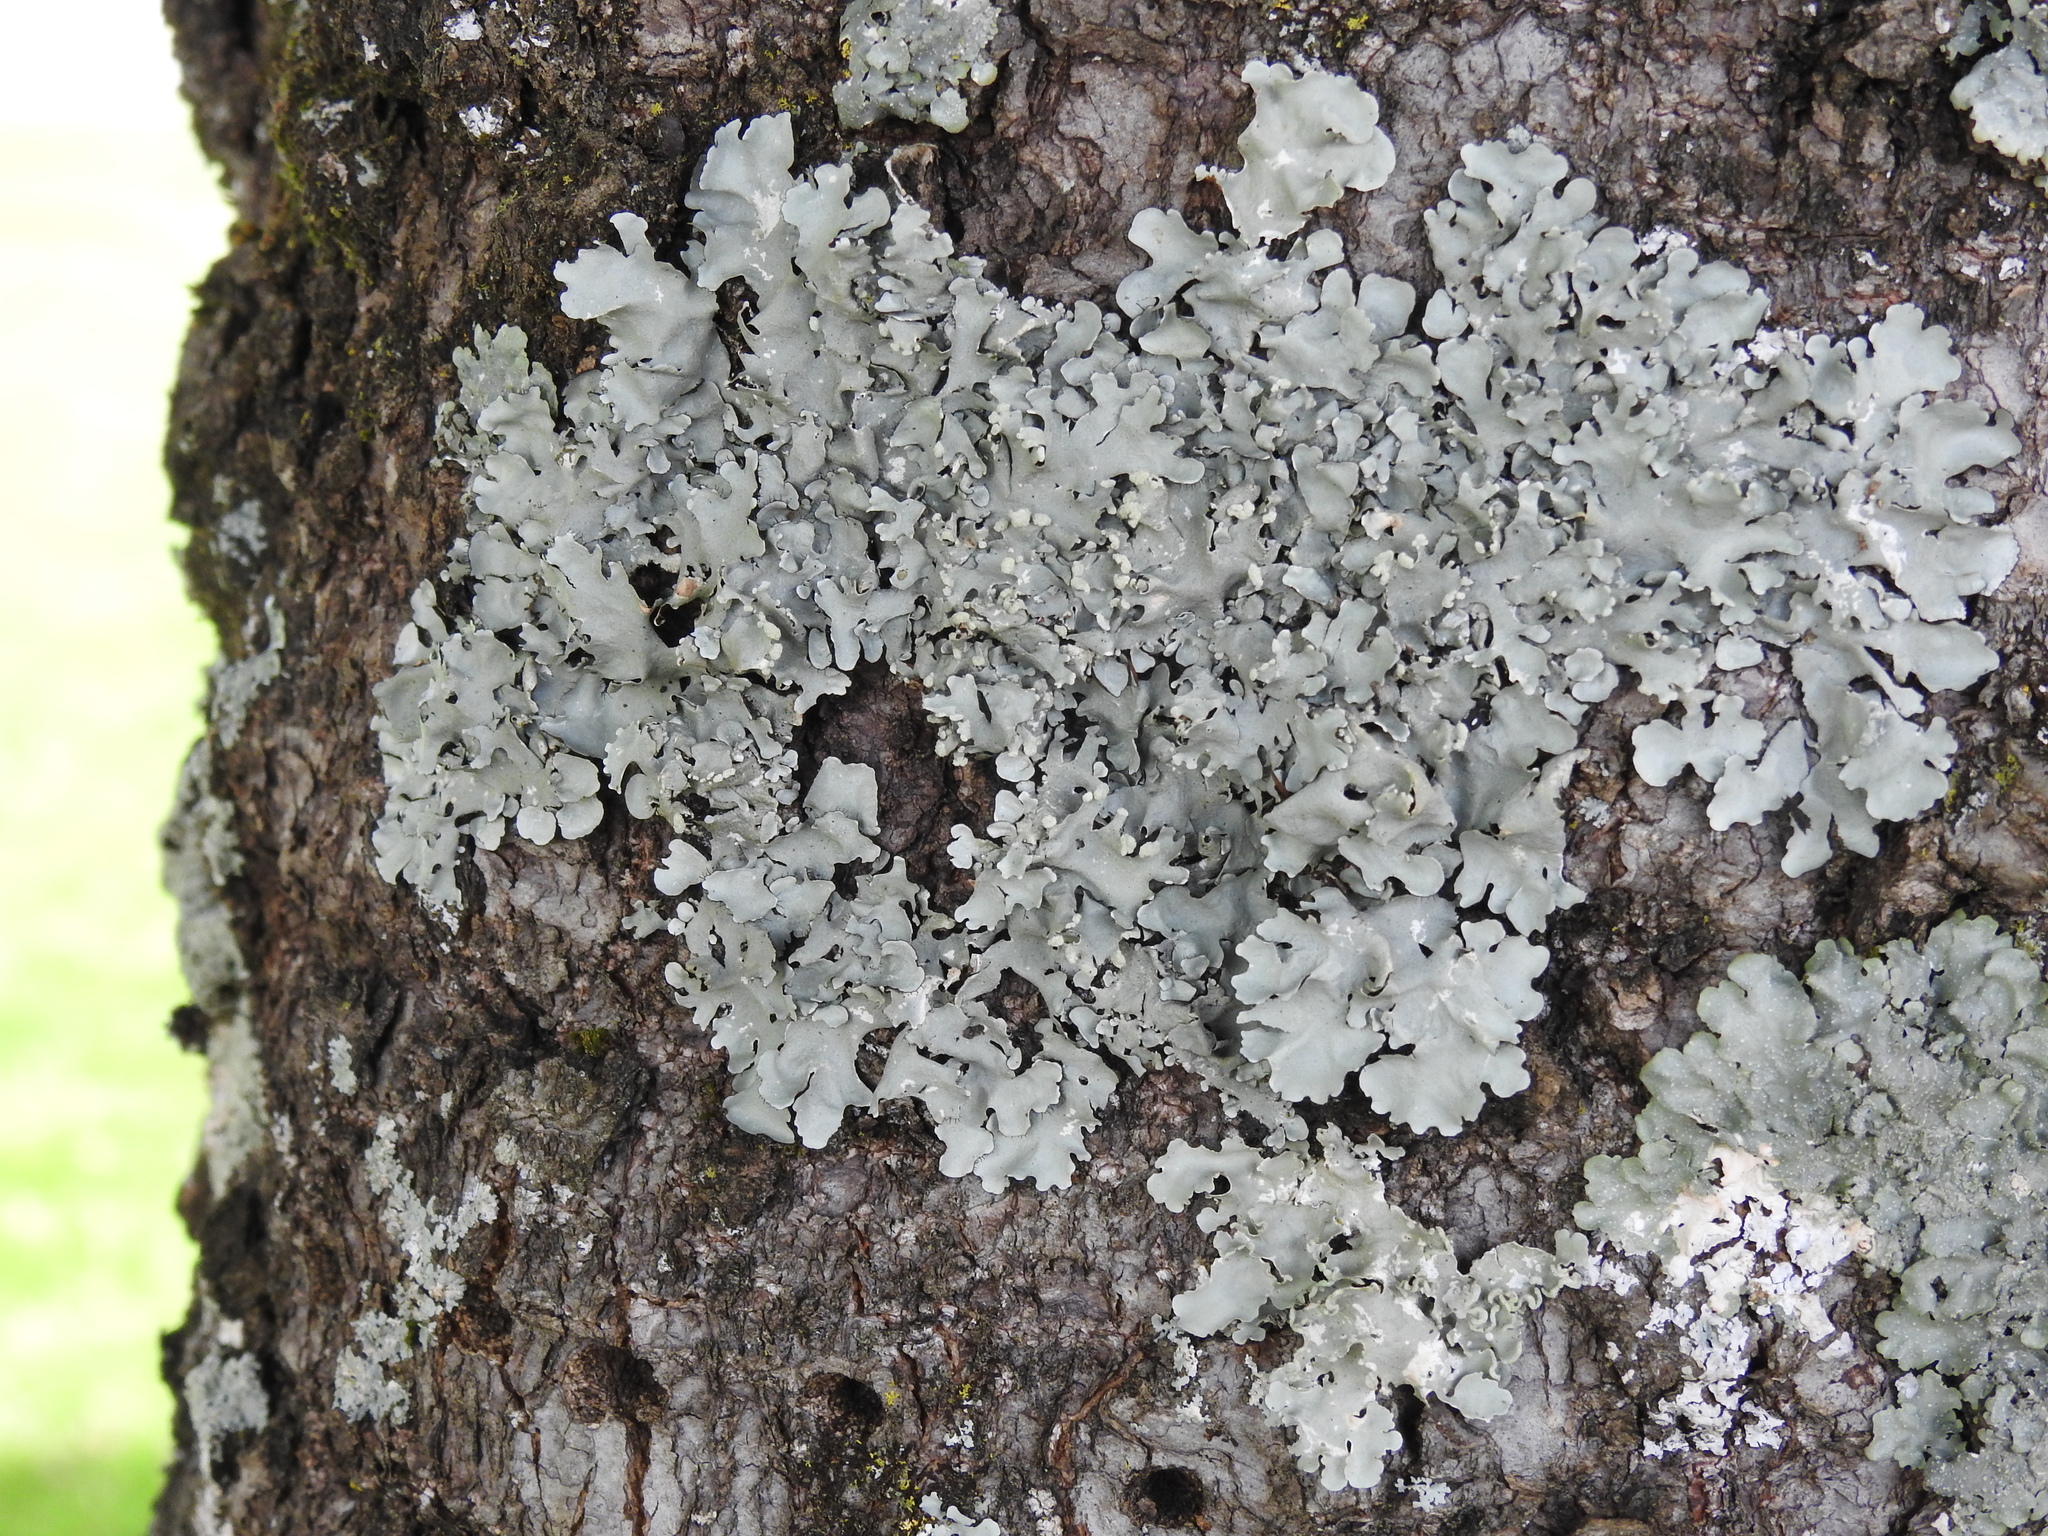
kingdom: Fungi
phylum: Ascomycota
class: Lecanoromycetes
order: Lecanorales
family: Parmeliaceae
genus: Parmotrema
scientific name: Parmotrema reticulatum
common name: Black sheet lichen
